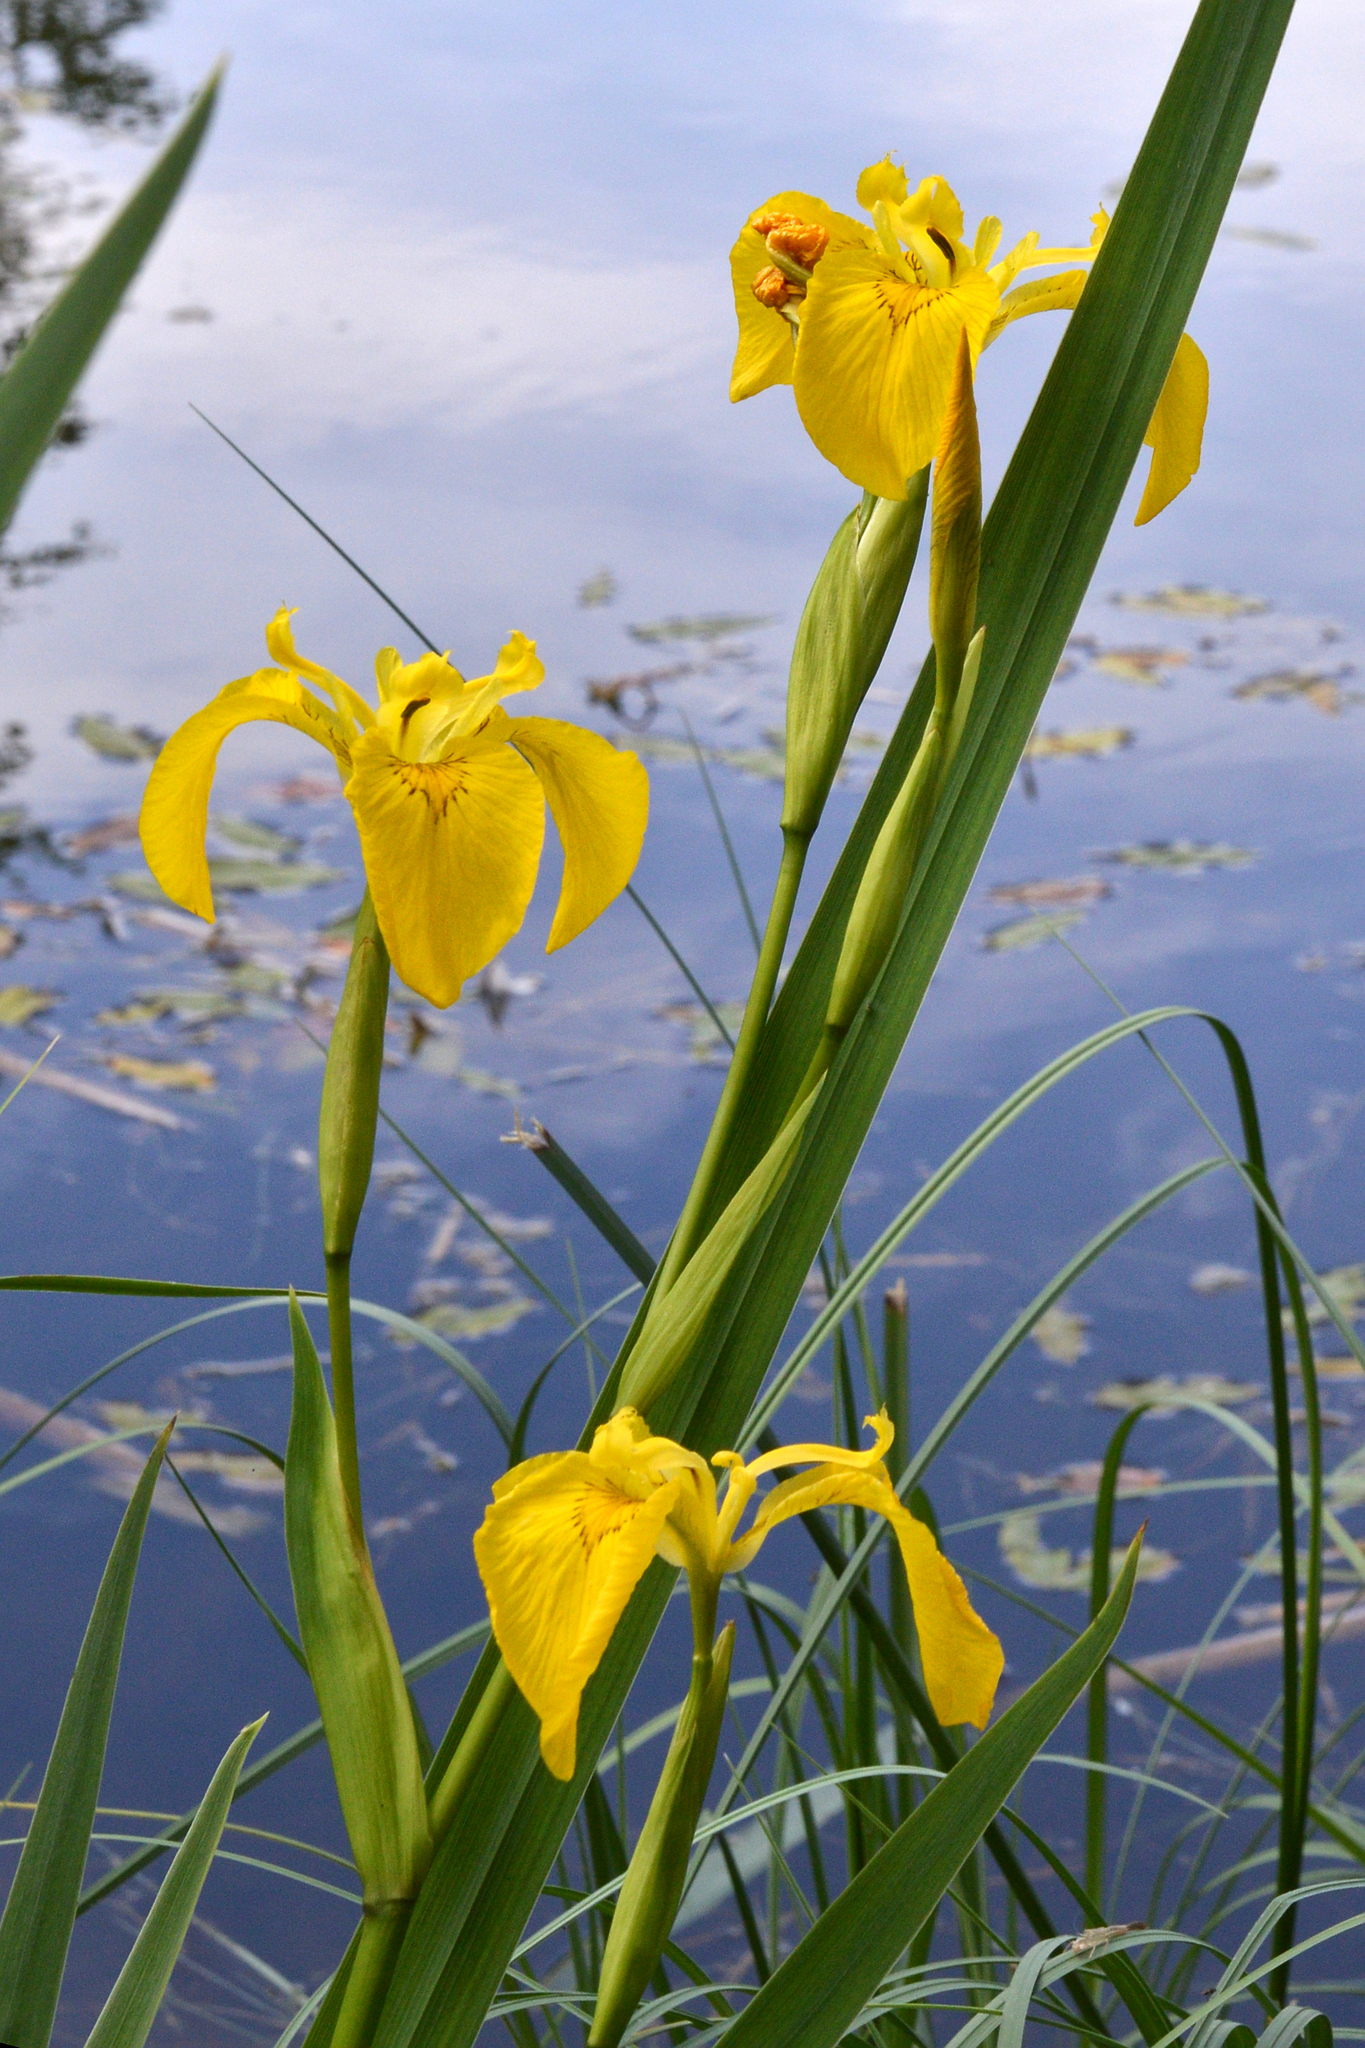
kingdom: Plantae
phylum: Tracheophyta
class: Liliopsida
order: Asparagales
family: Iridaceae
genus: Iris
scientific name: Iris pseudacorus
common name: Yellow flag
